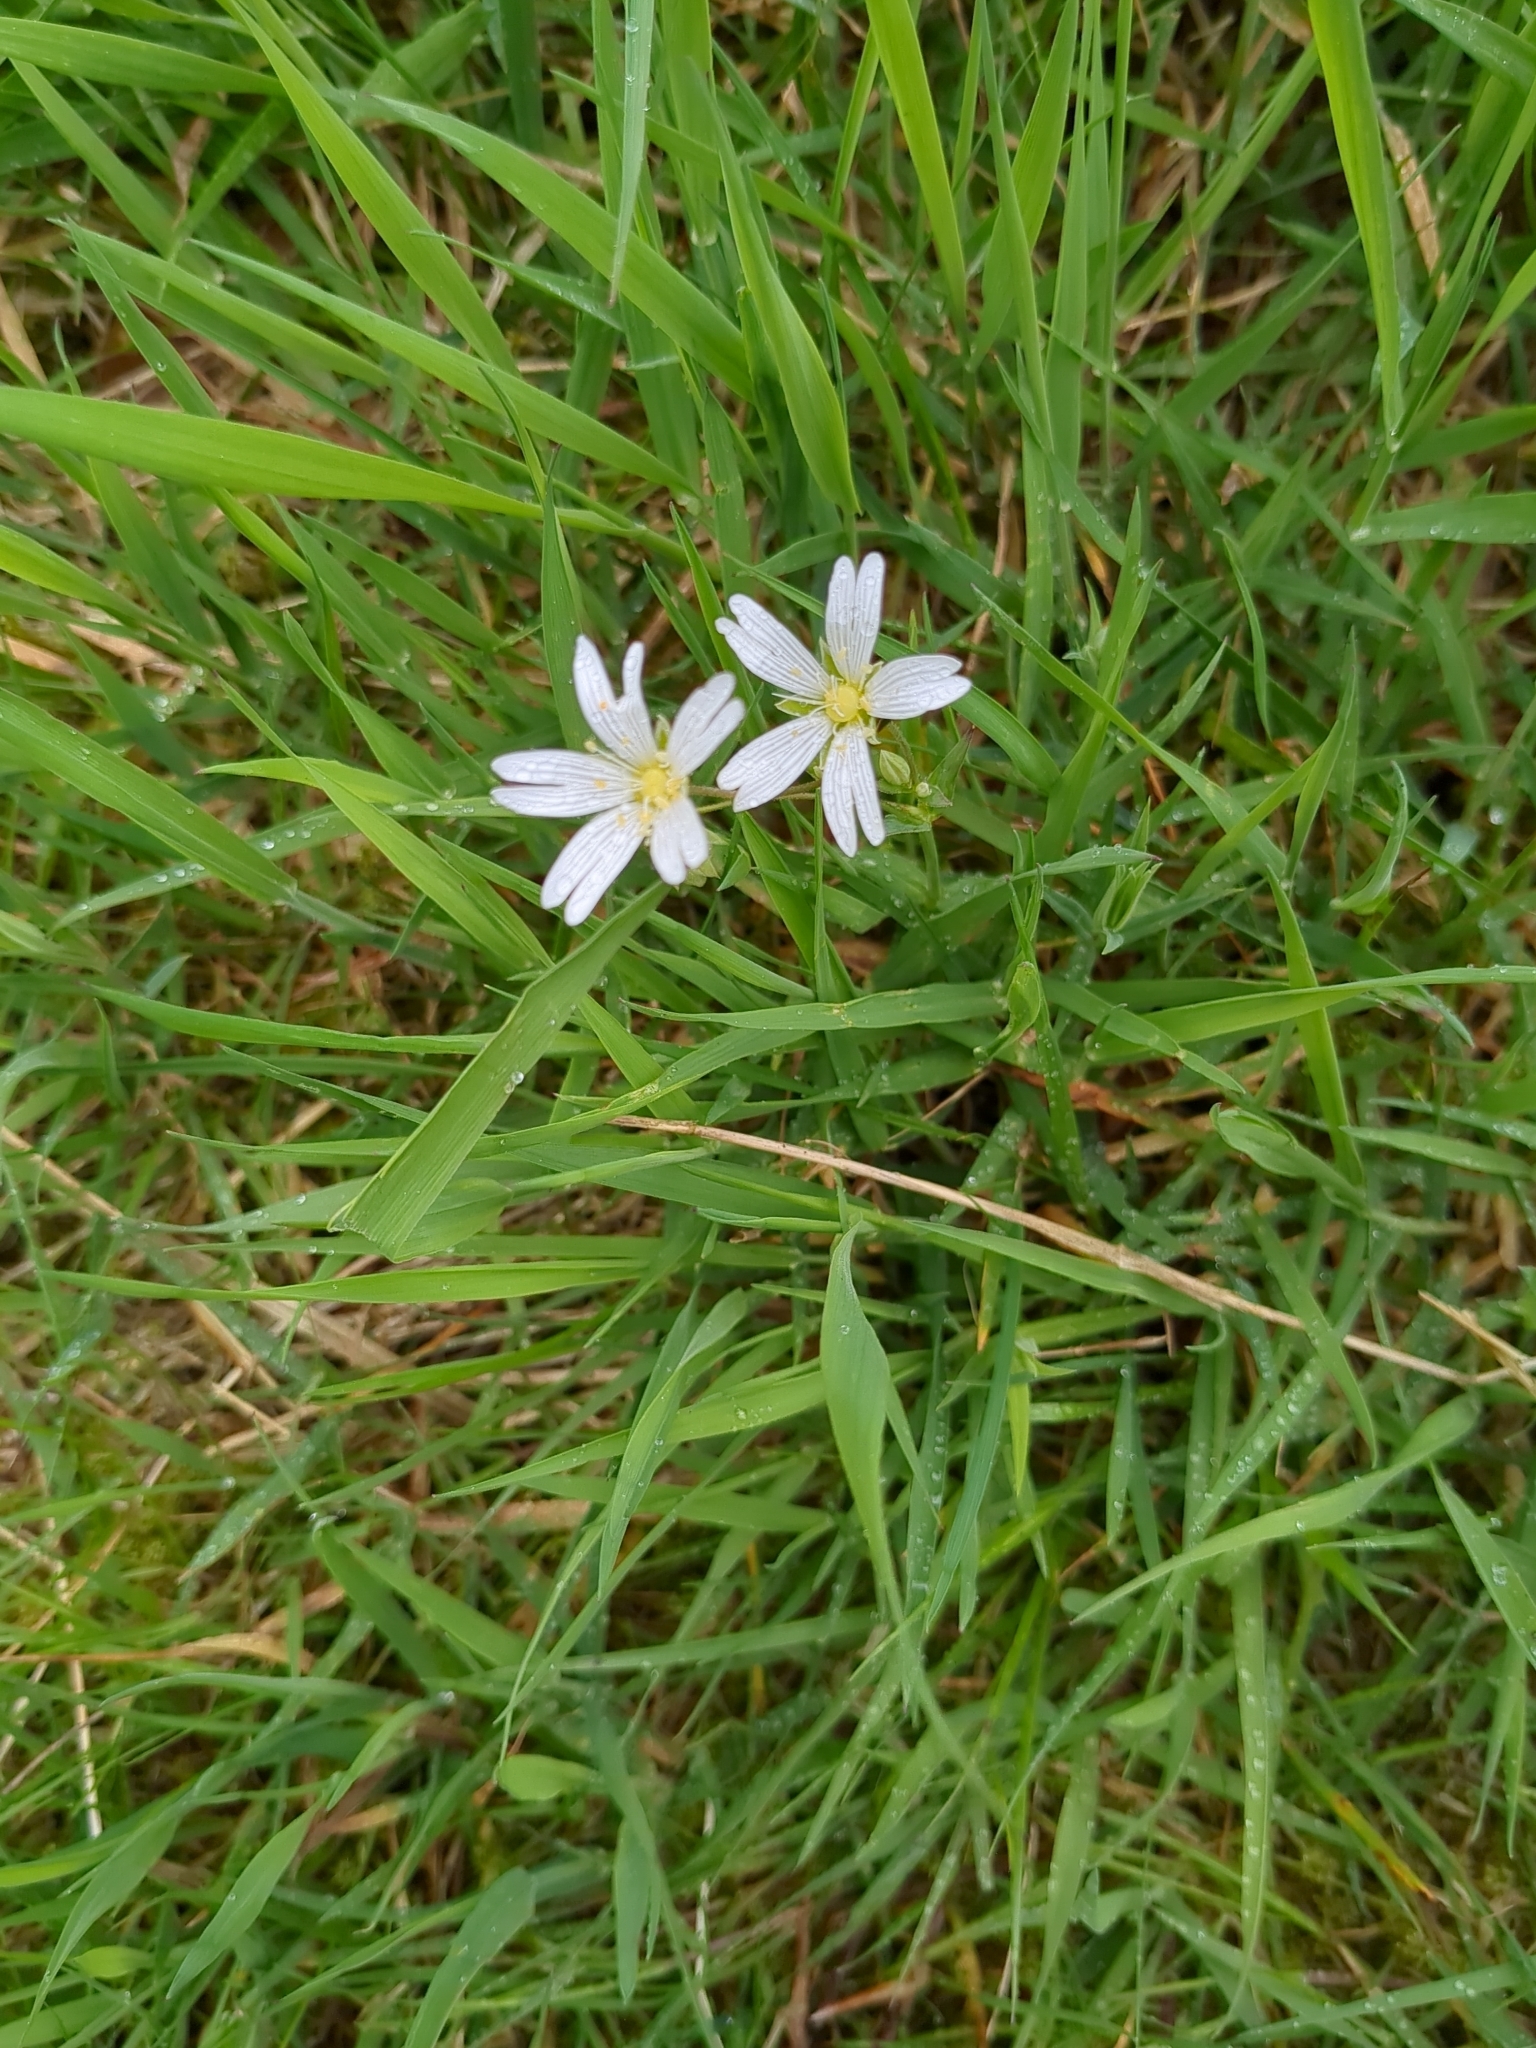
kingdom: Plantae
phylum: Tracheophyta
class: Magnoliopsida
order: Caryophyllales
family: Caryophyllaceae
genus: Rabelera
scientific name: Rabelera holostea
